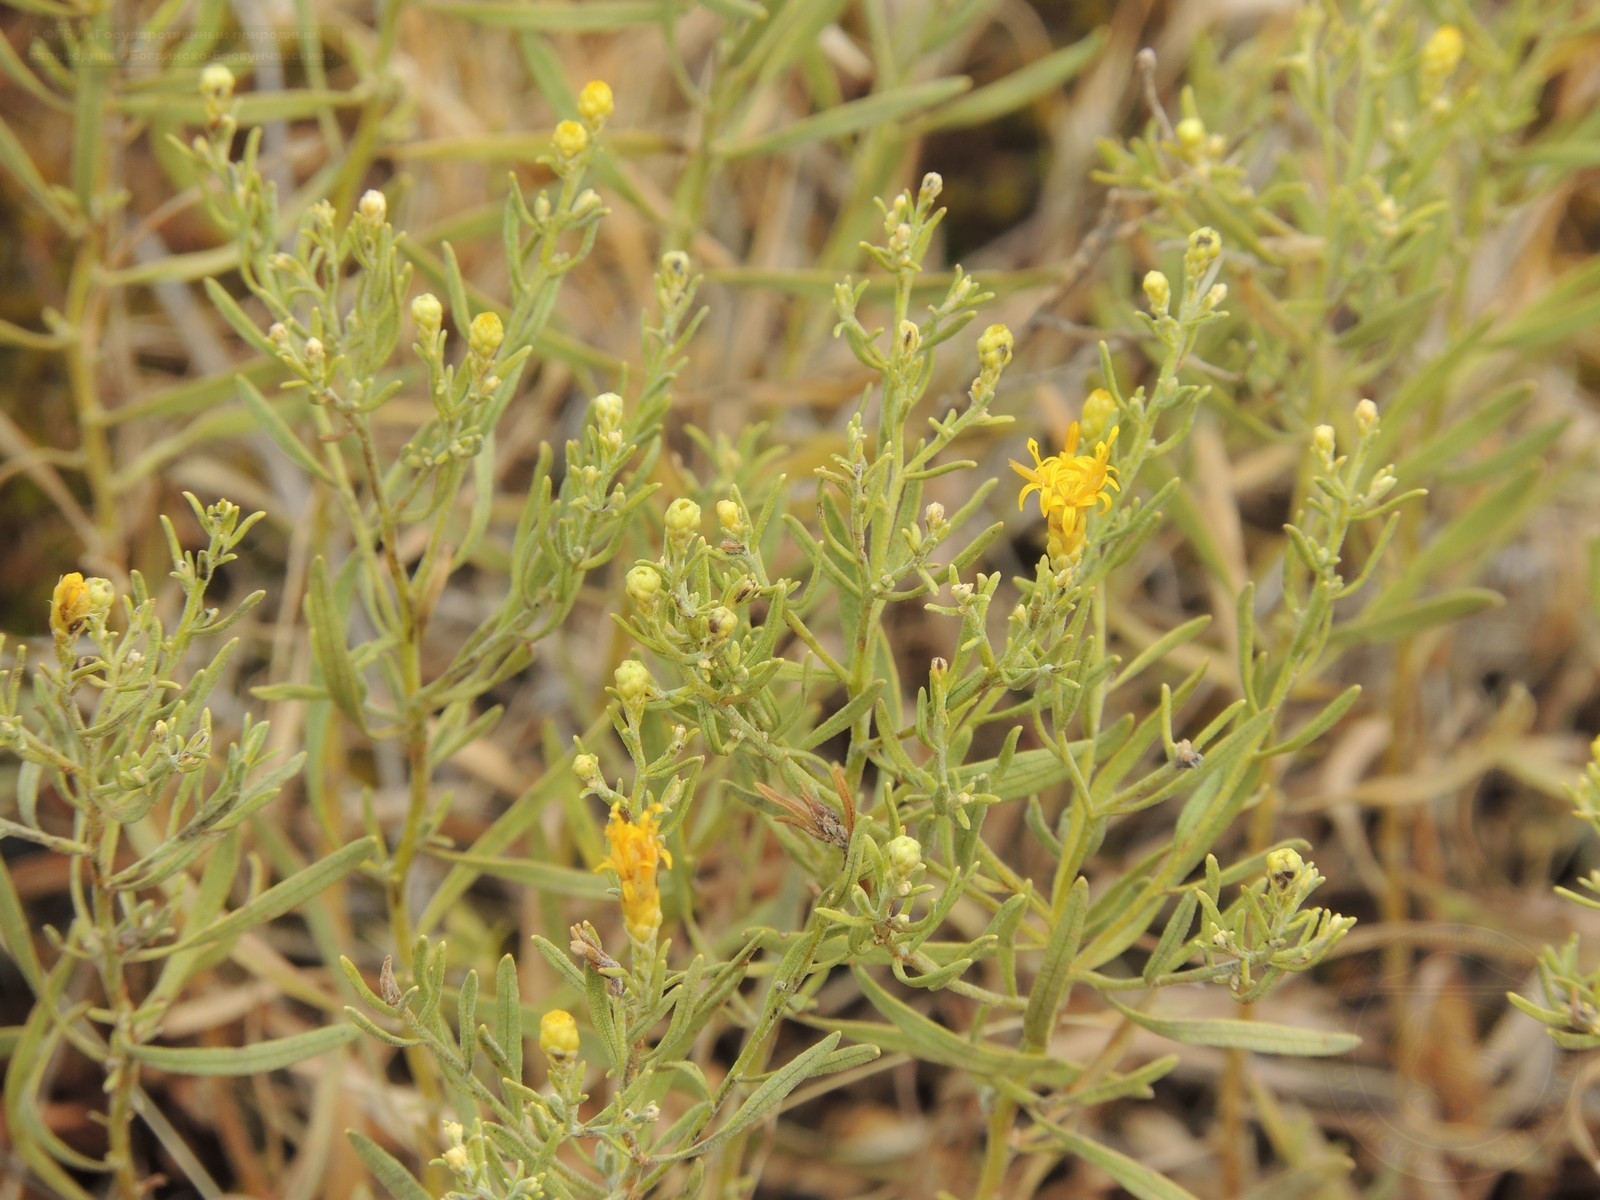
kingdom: Plantae
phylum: Tracheophyta
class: Magnoliopsida
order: Asterales
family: Asteraceae
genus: Galatella
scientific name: Galatella sedifolia
